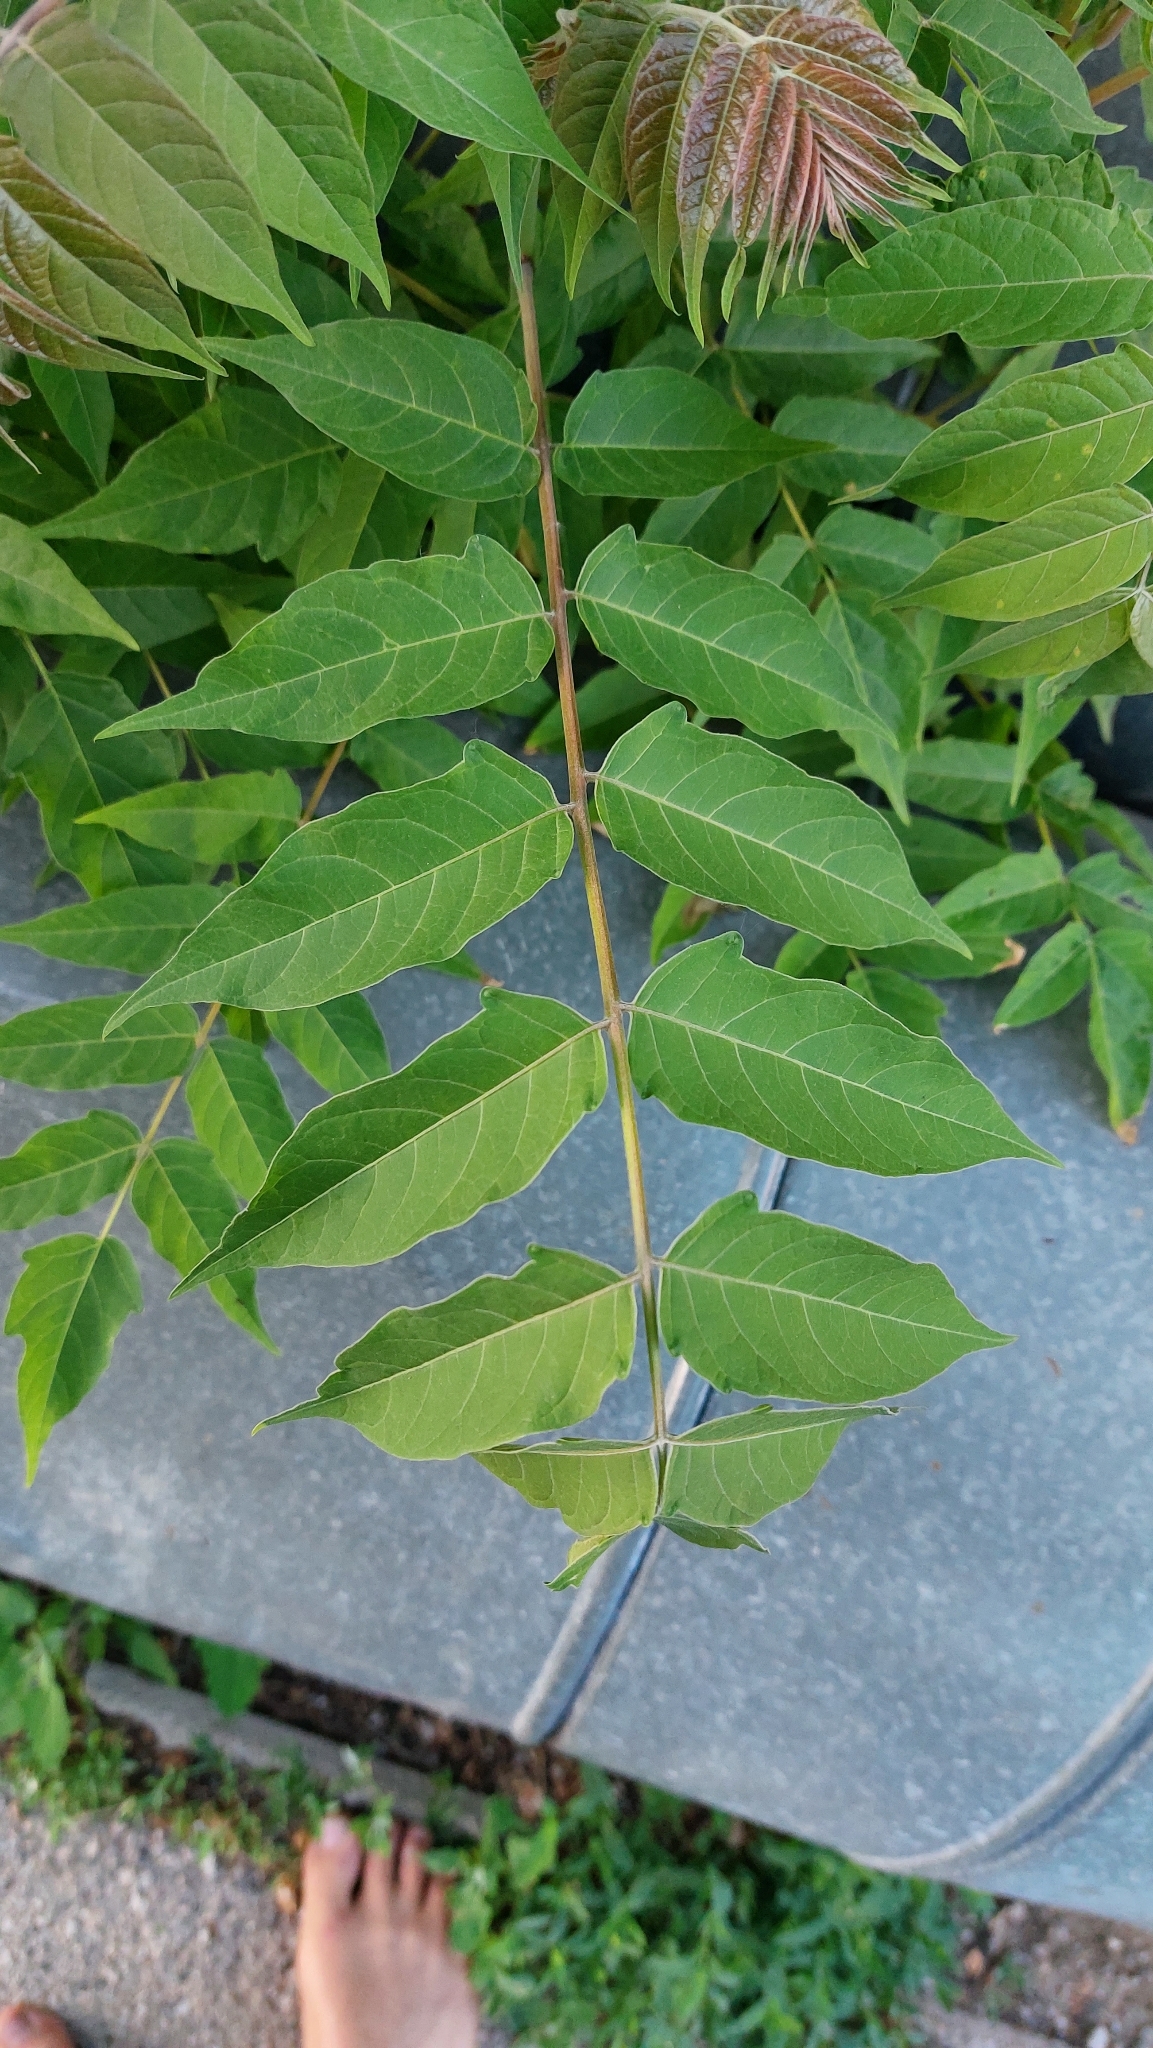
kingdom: Plantae
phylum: Tracheophyta
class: Magnoliopsida
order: Sapindales
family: Simaroubaceae
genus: Ailanthus
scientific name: Ailanthus altissima
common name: Tree-of-heaven
